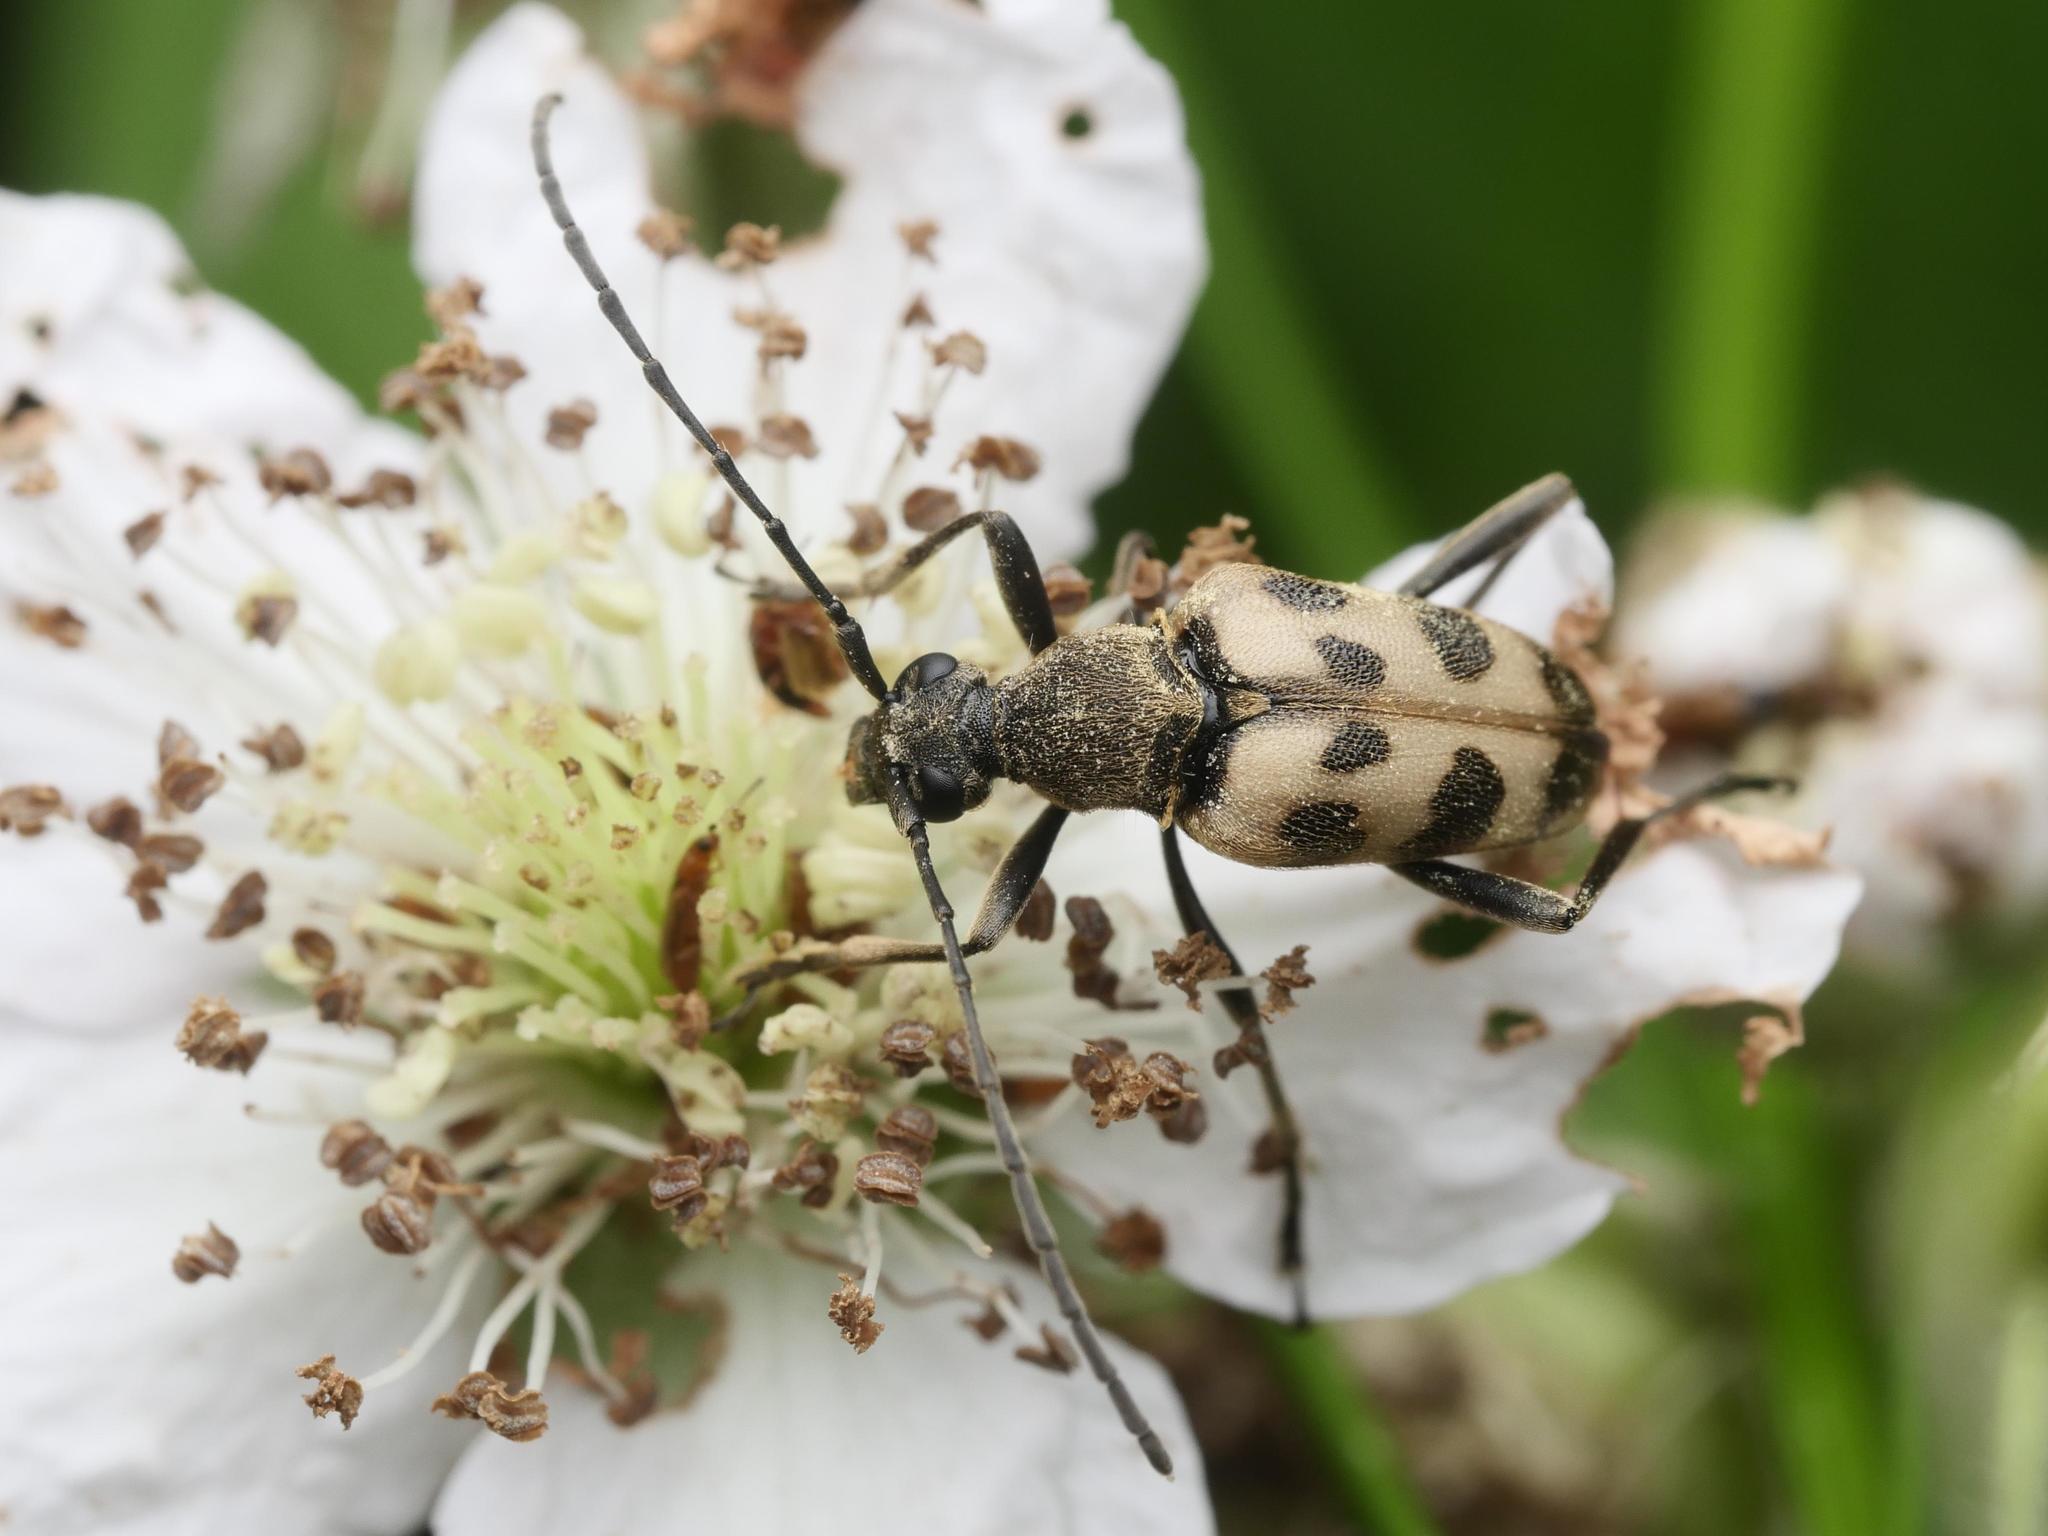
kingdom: Animalia
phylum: Arthropoda
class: Insecta
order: Coleoptera
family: Cerambycidae
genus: Pachytodes
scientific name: Pachytodes cerambyciformis
